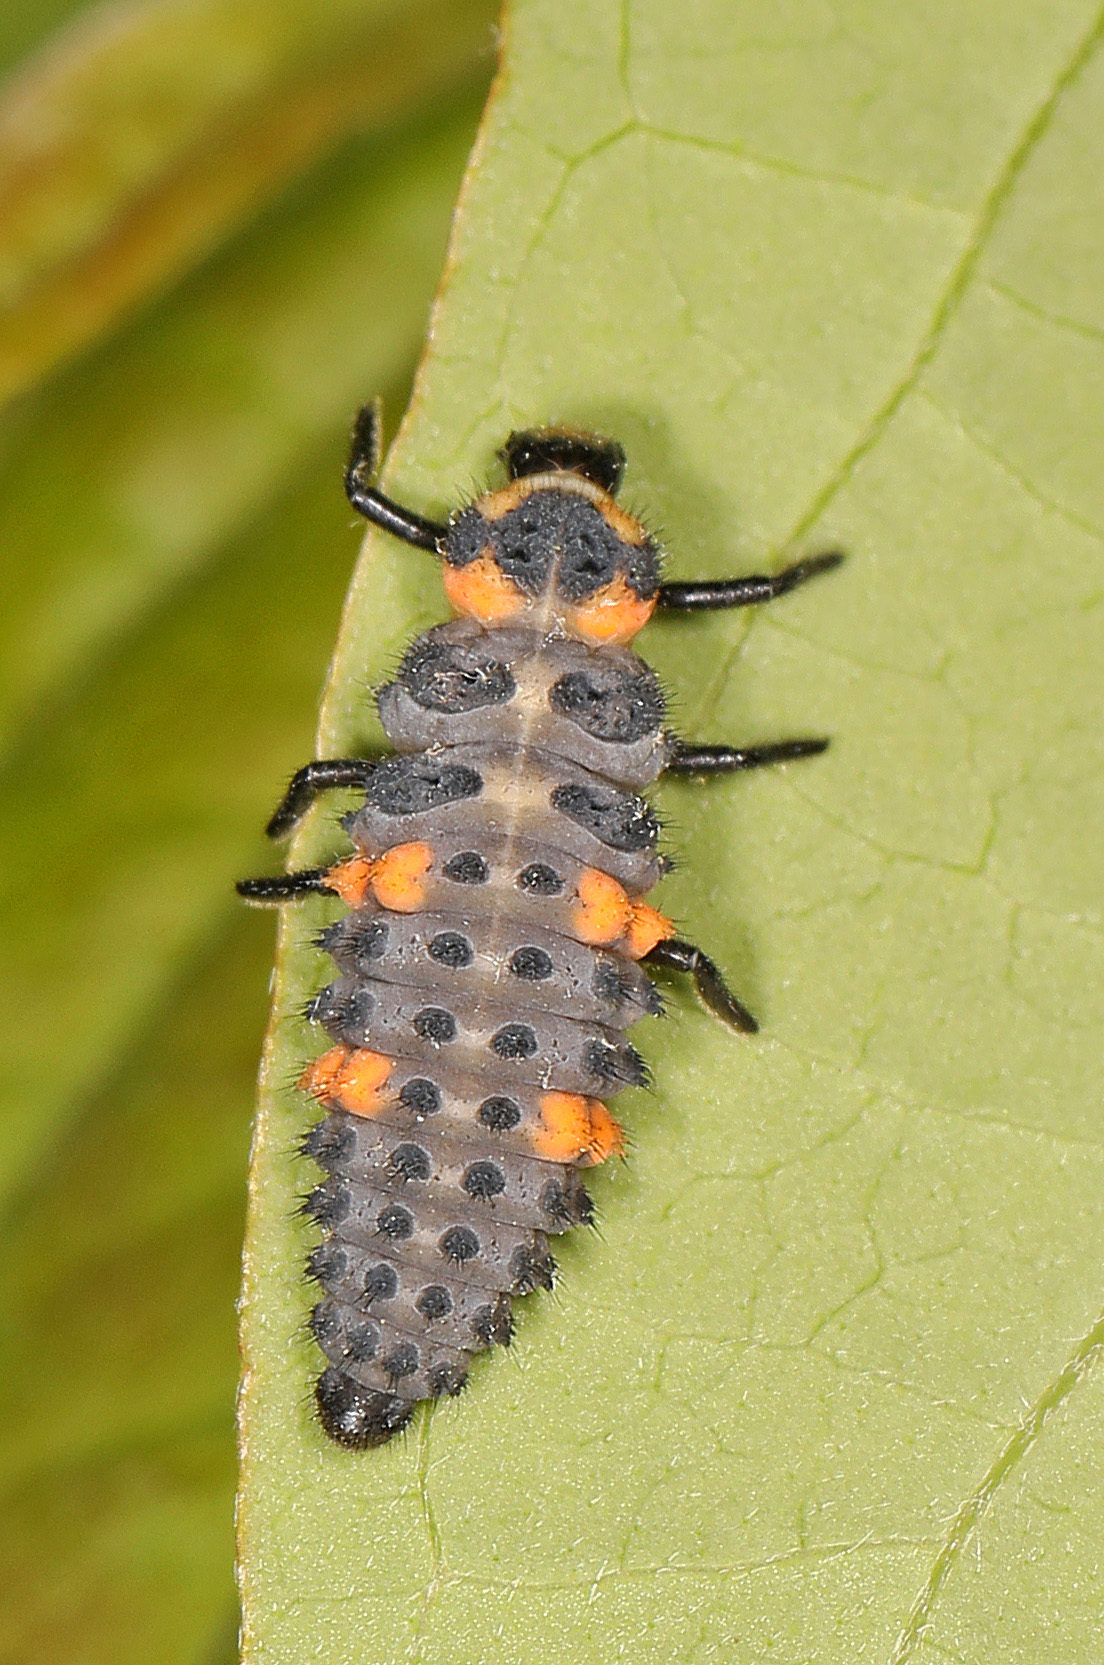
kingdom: Animalia
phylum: Arthropoda
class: Insecta
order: Coleoptera
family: Coccinellidae
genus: Coccinella
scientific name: Coccinella septempunctata
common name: Sevenspotted lady beetle
